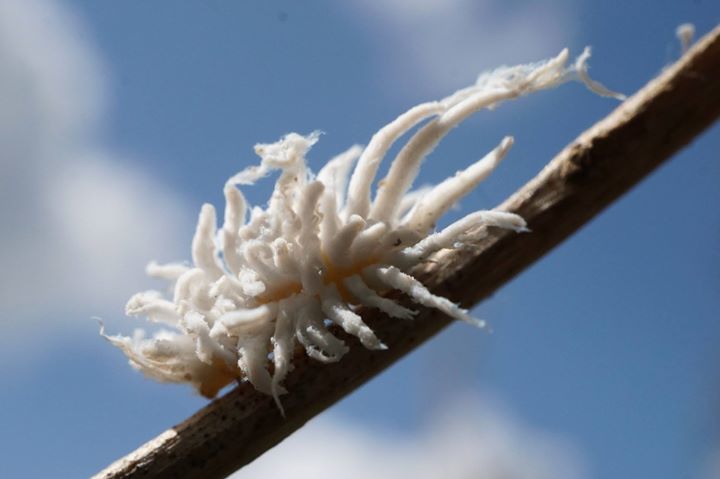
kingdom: Animalia
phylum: Arthropoda
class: Insecta
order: Coleoptera
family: Coccinellidae
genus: Cryptolaemus
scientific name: Cryptolaemus montrouzieri
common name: Mealybug destroyer
